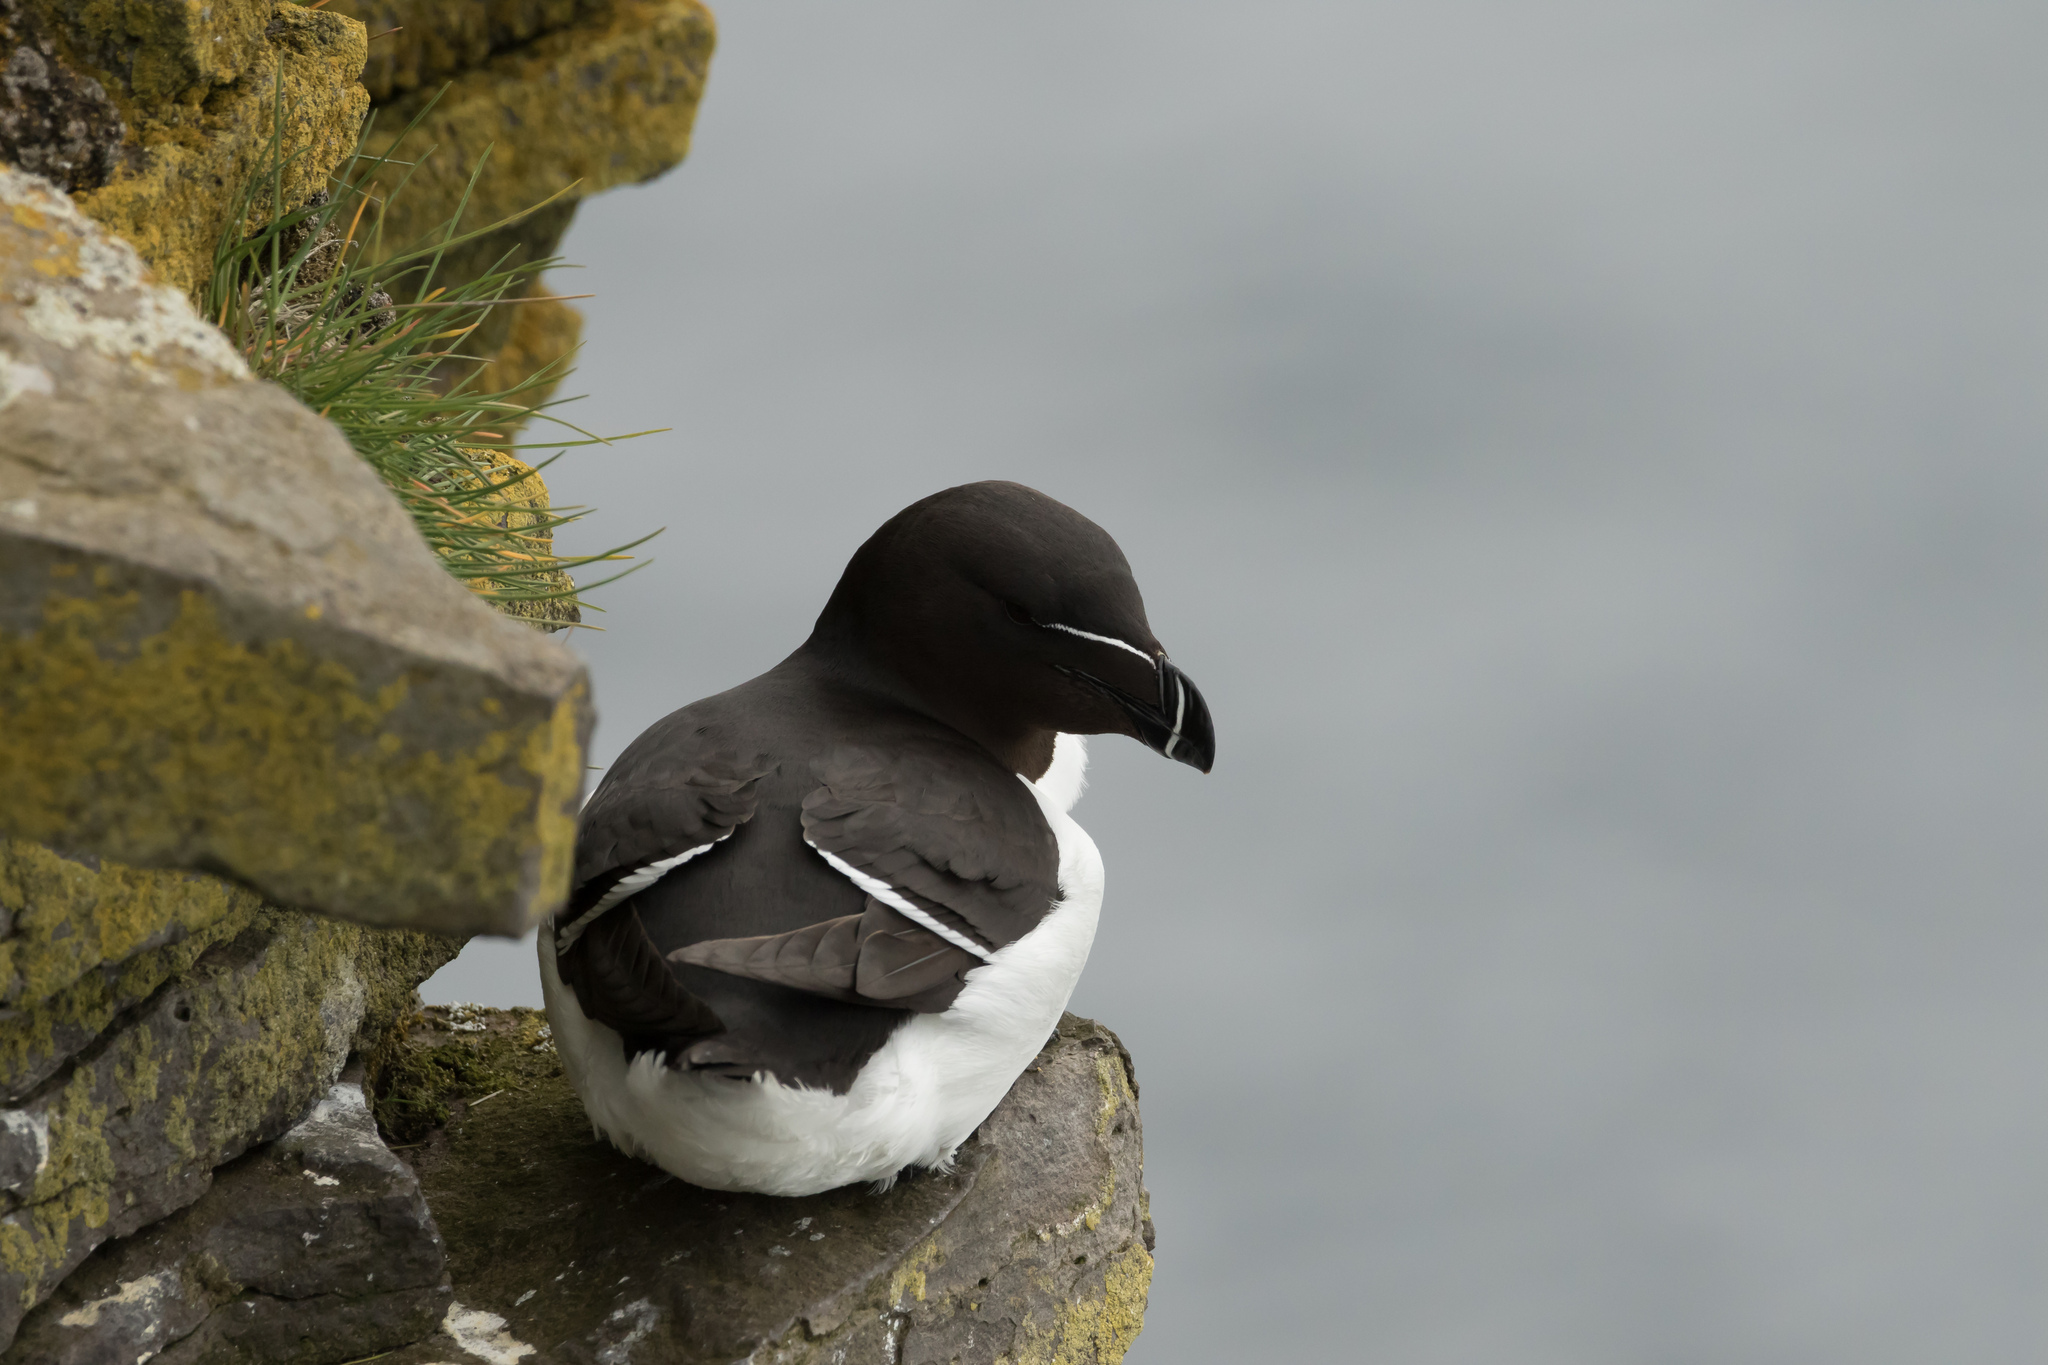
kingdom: Animalia
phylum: Chordata
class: Aves
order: Charadriiformes
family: Alcidae
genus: Alca
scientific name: Alca torda
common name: Razorbill
